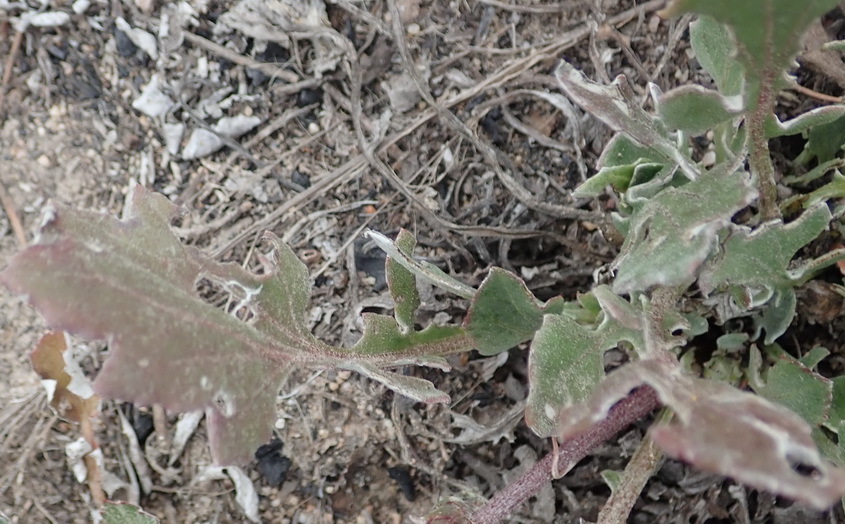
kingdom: Plantae
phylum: Tracheophyta
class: Magnoliopsida
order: Asterales
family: Asteraceae
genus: Arctotis
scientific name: Arctotis acaulis
